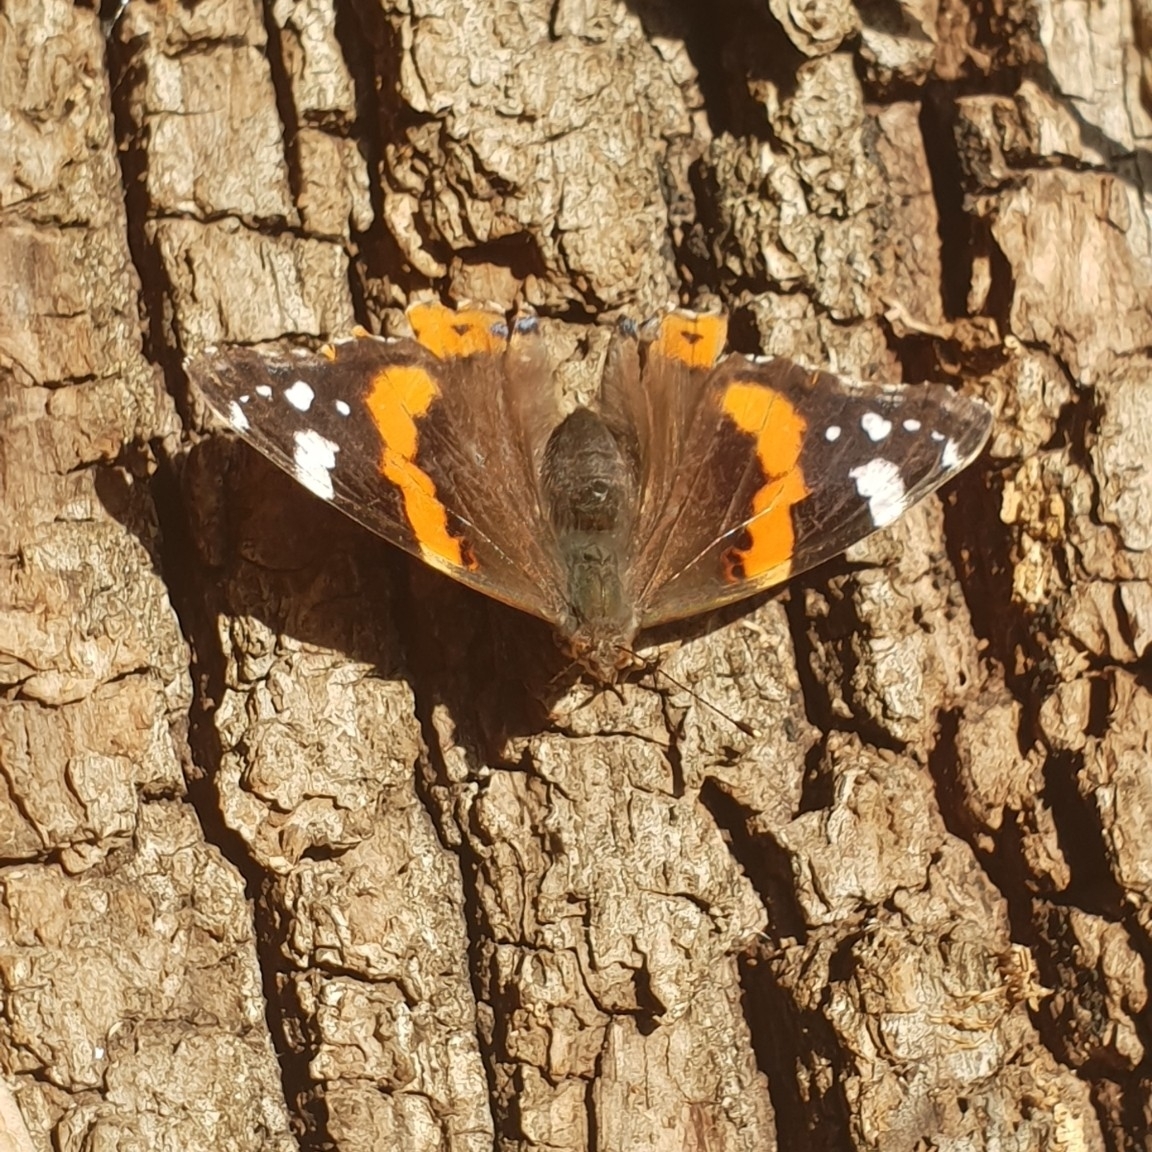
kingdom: Animalia
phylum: Arthropoda
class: Insecta
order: Lepidoptera
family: Nymphalidae
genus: Vanessa
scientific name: Vanessa atalanta
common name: Red admiral
